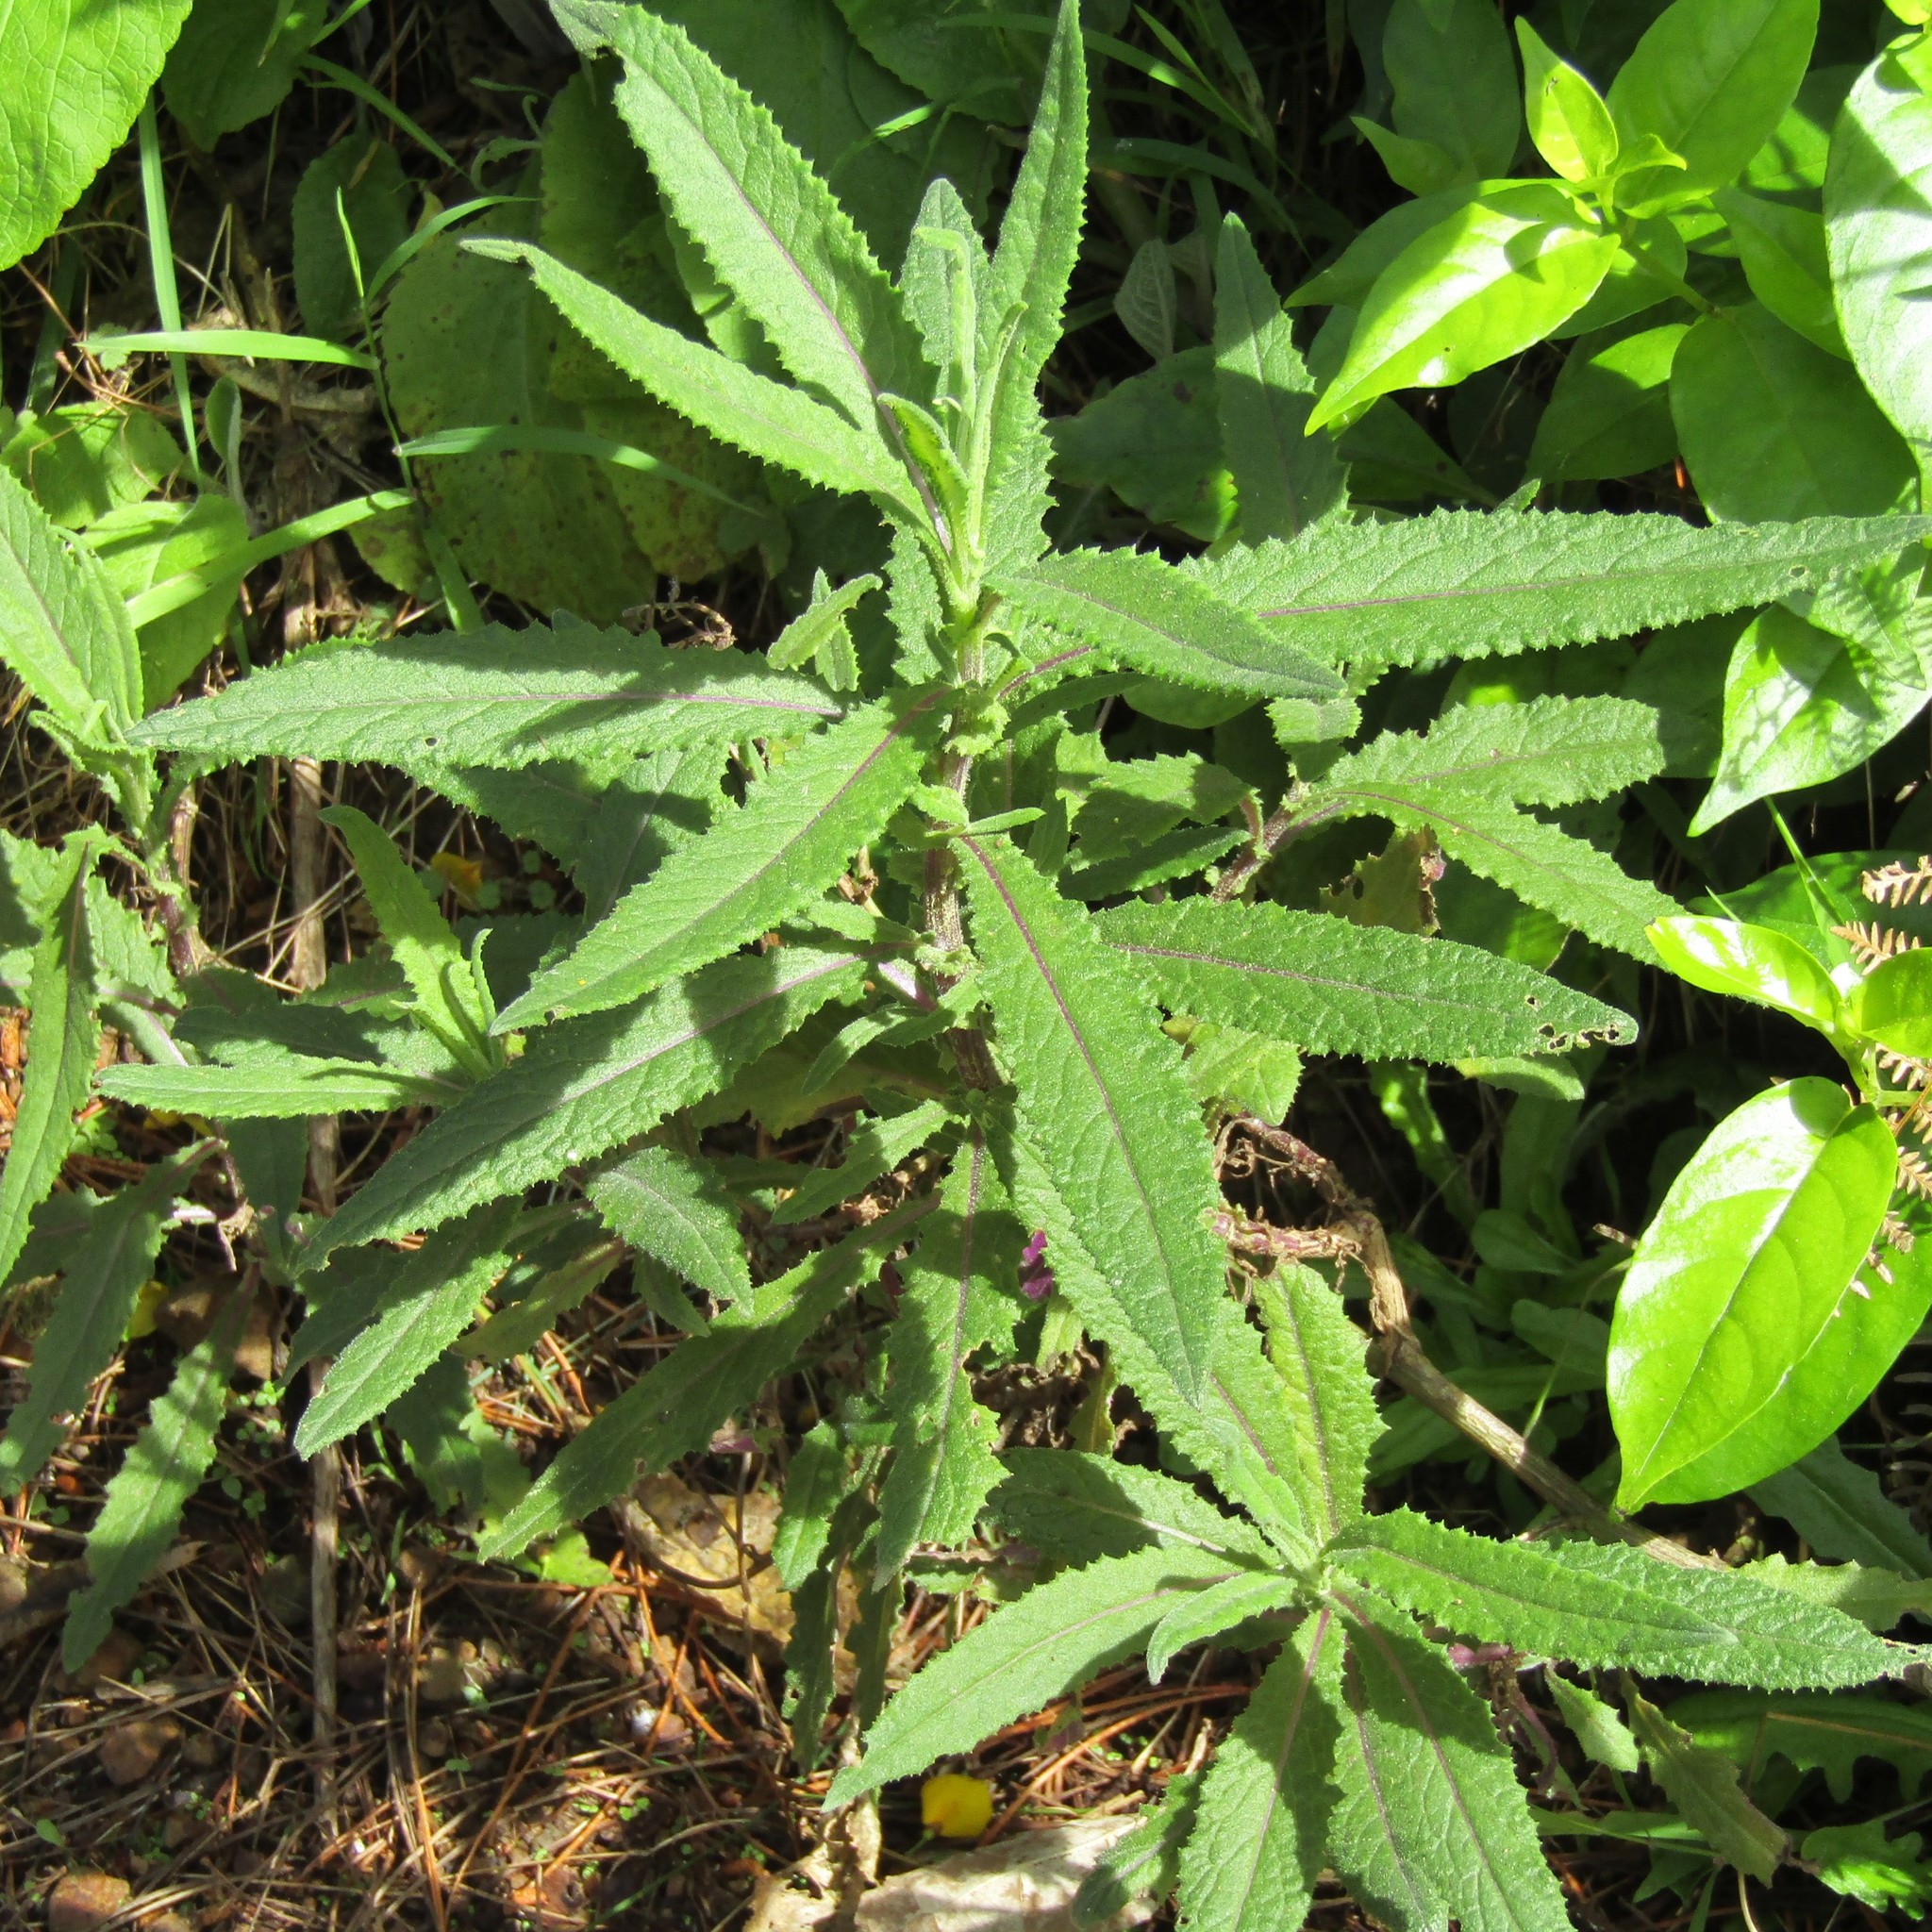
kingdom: Plantae
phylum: Tracheophyta
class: Magnoliopsida
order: Asterales
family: Asteraceae
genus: Senecio
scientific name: Senecio minimus
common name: Toothed fireweed
